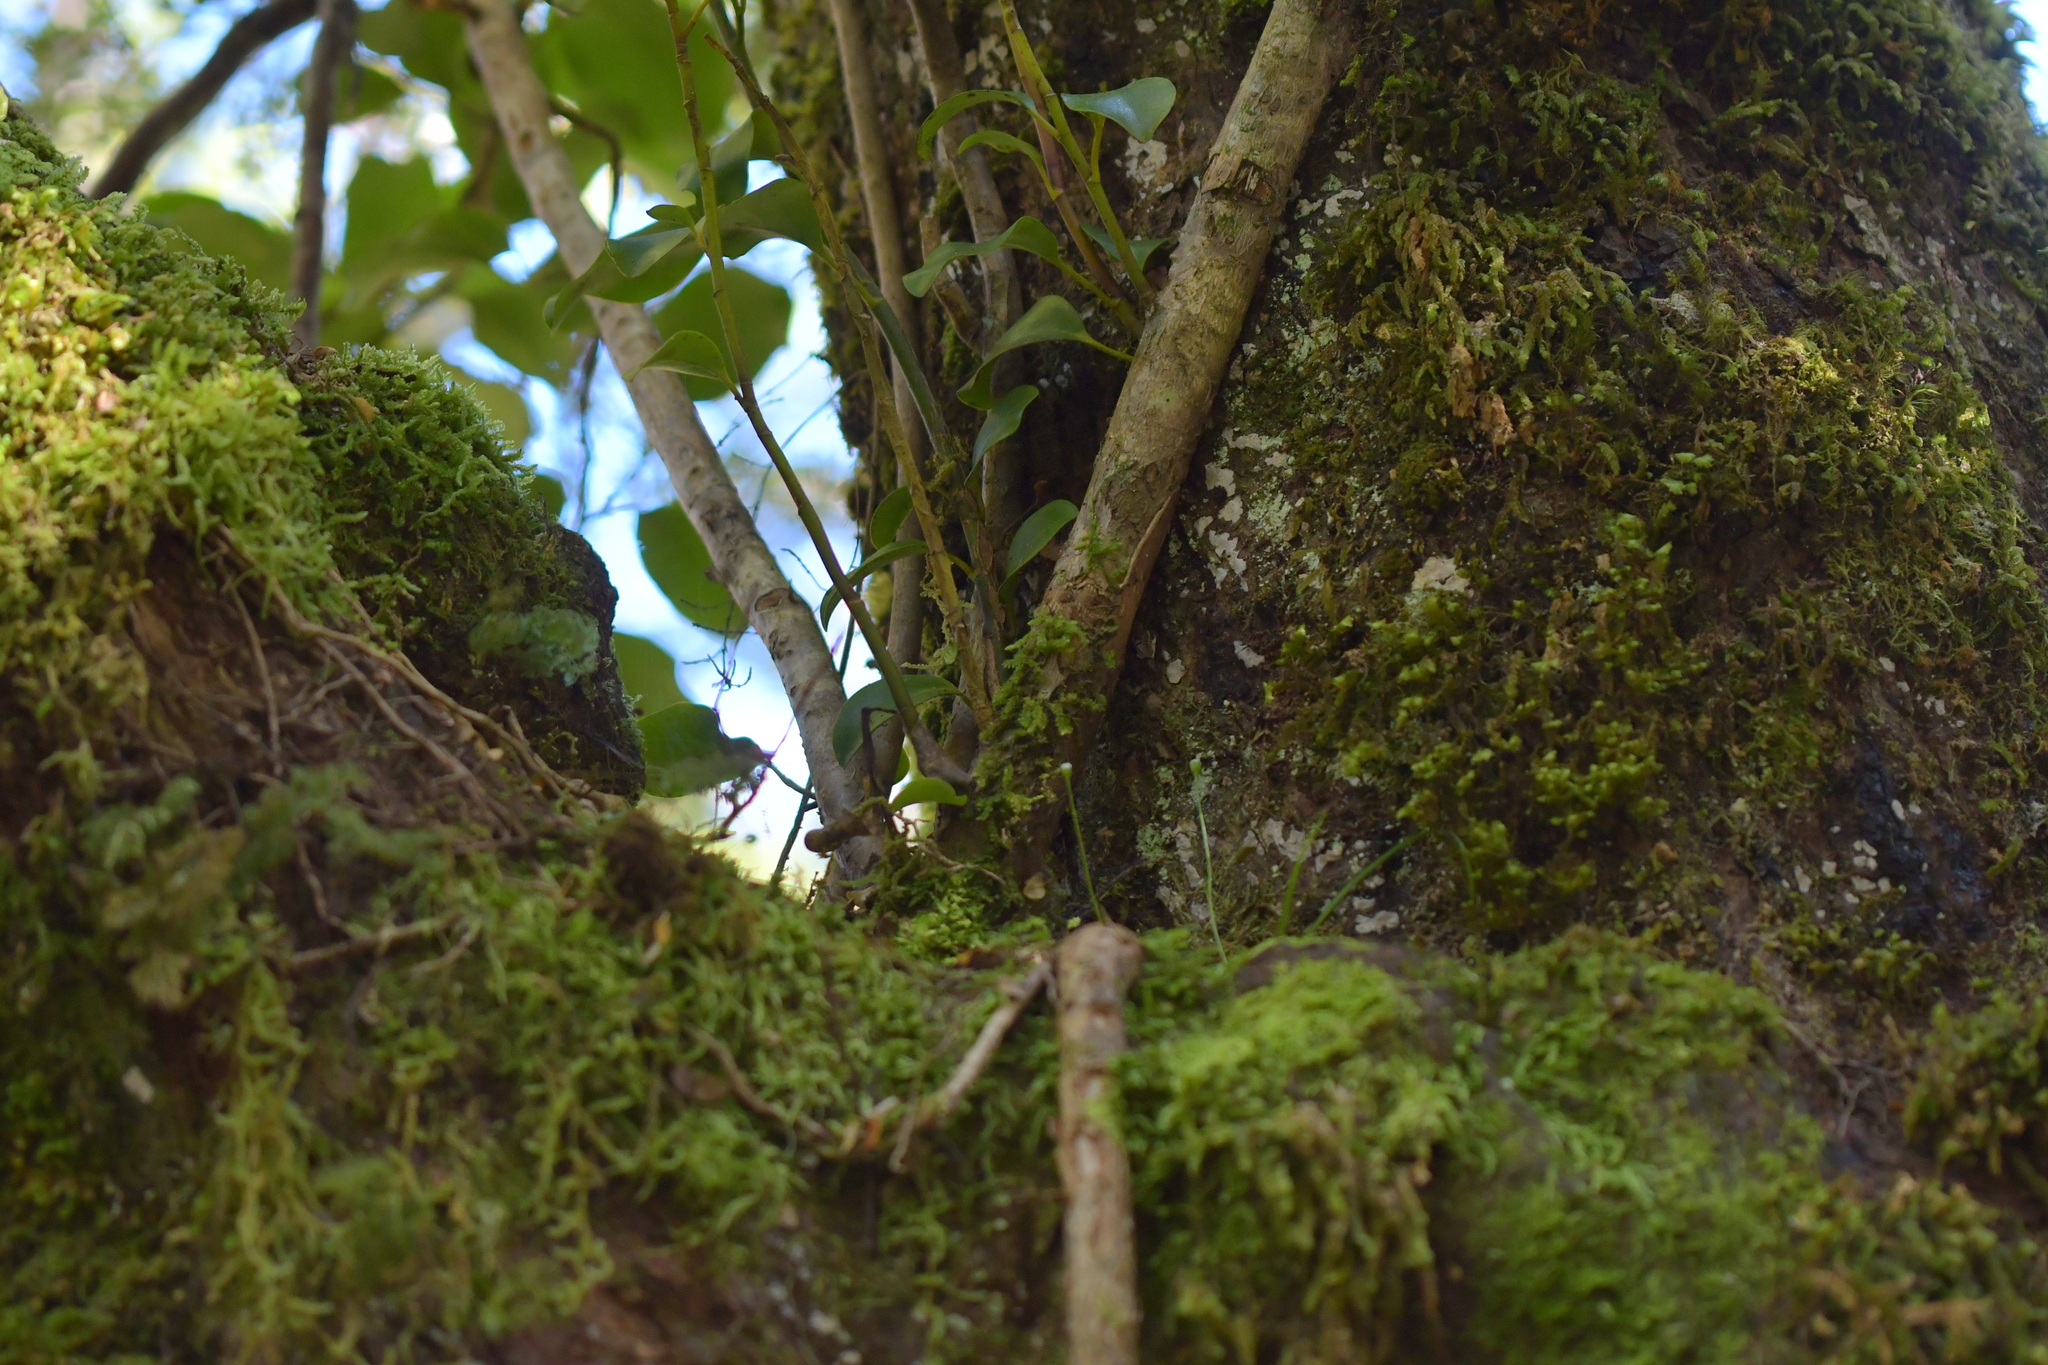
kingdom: Plantae
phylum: Tracheophyta
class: Magnoliopsida
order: Apiales
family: Griseliniaceae
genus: Griselinia
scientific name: Griselinia littoralis
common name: New zealand broadleaf
